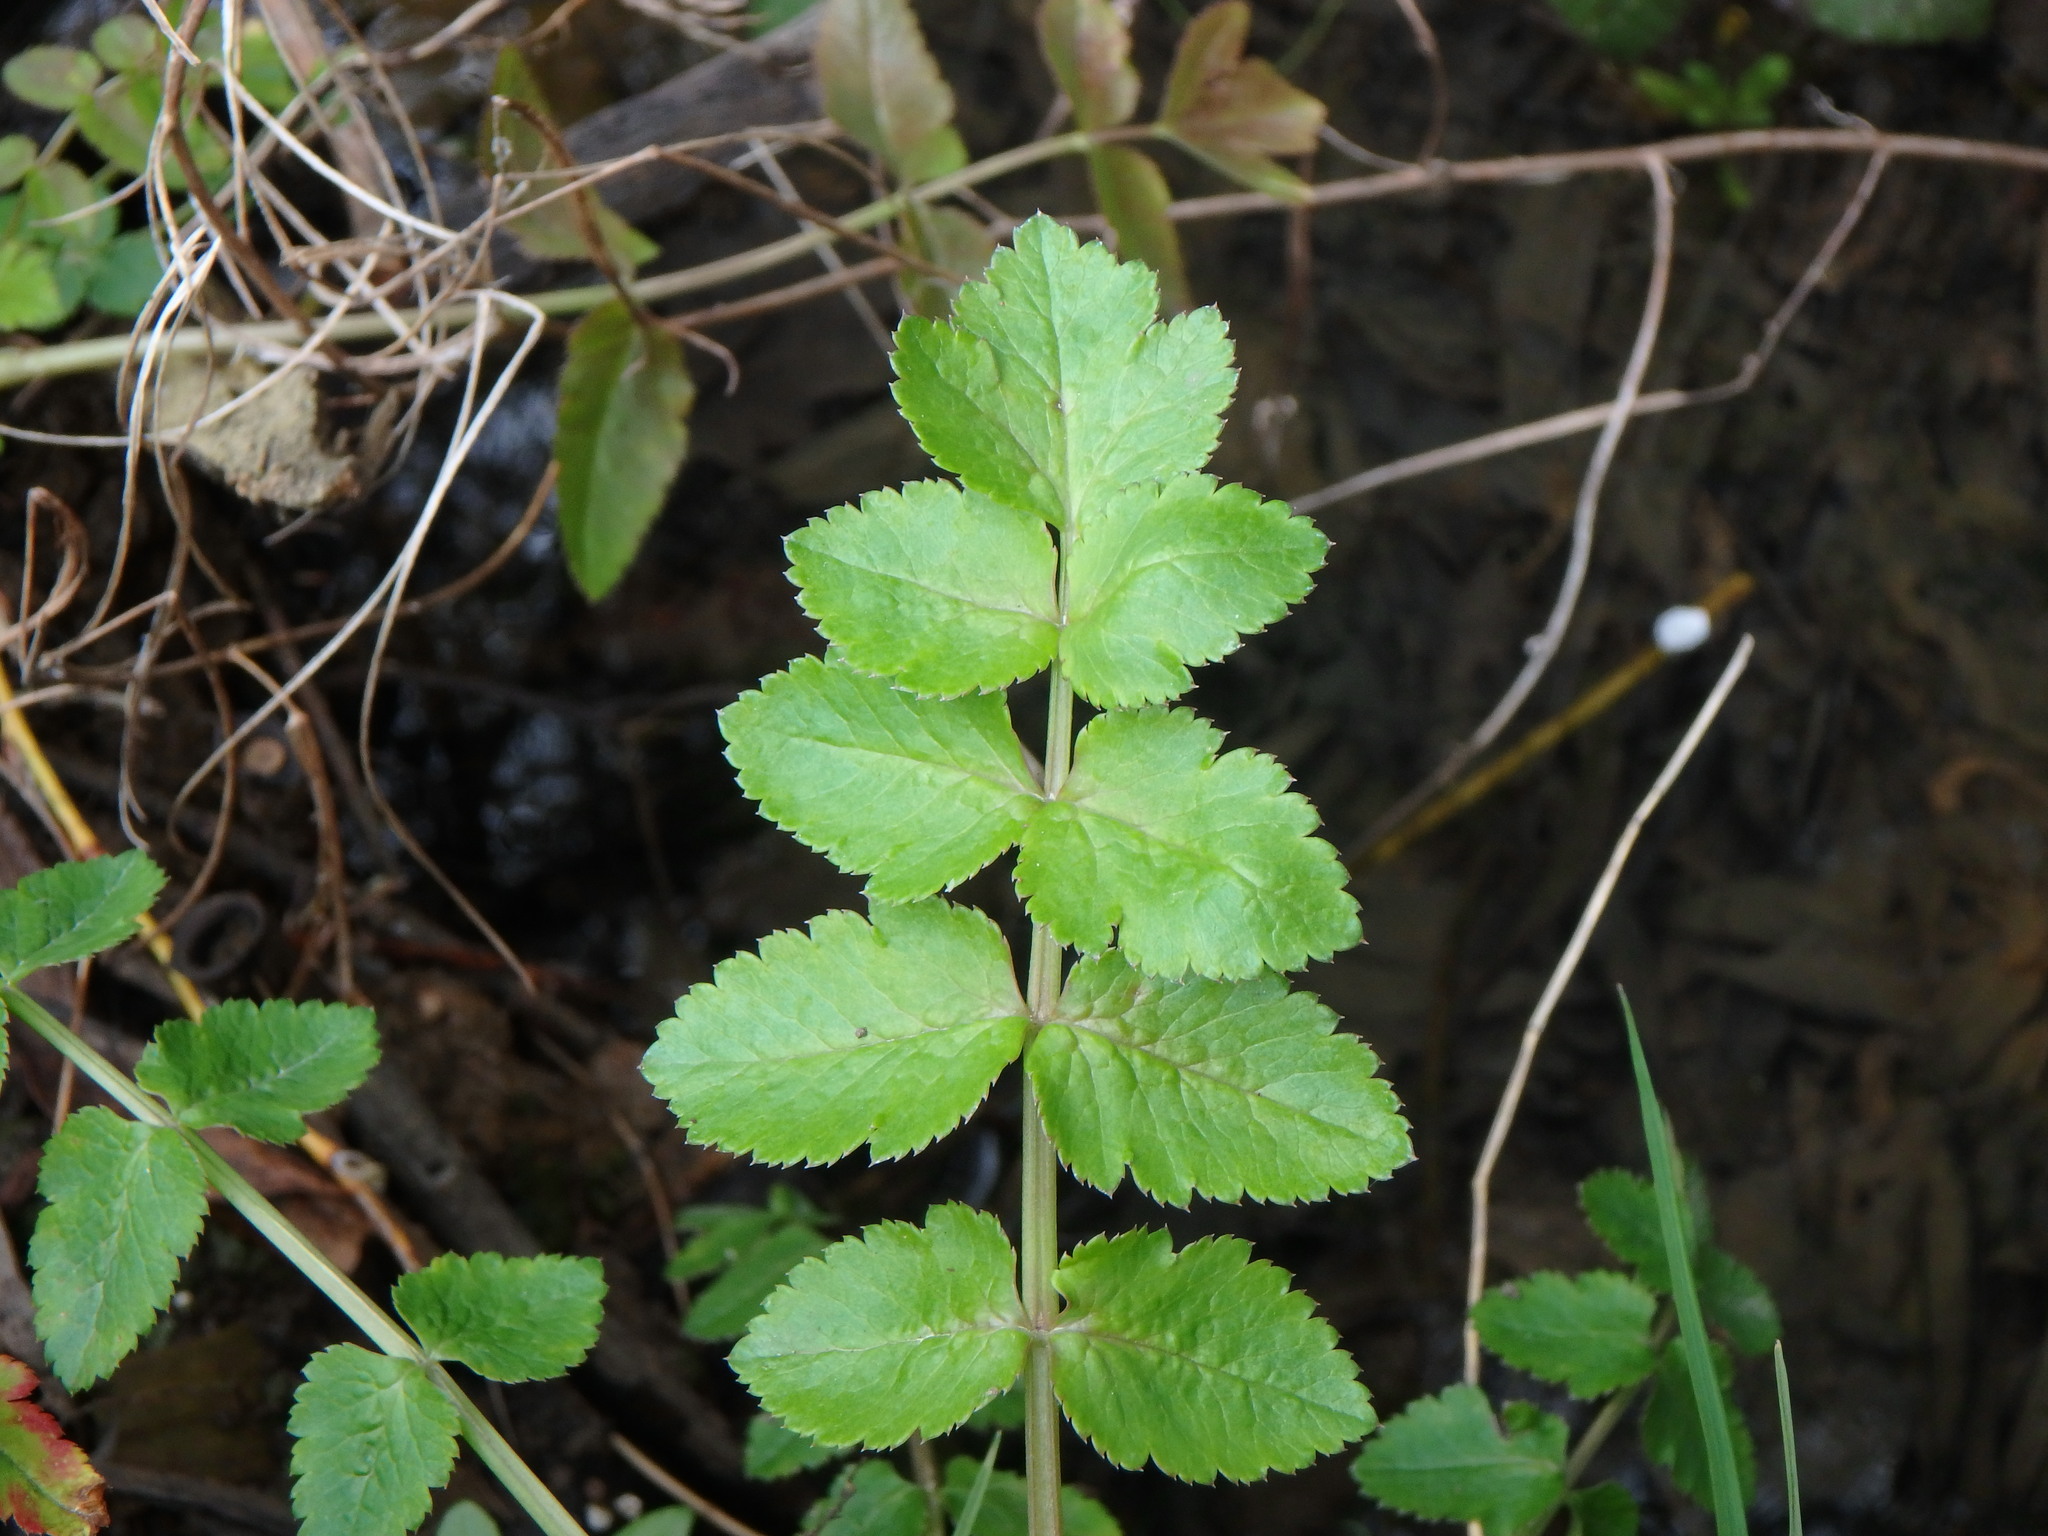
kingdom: Plantae
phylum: Tracheophyta
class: Magnoliopsida
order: Apiales
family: Apiaceae
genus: Helosciadium
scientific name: Helosciadium nodiflorum
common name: Fool's-watercress
